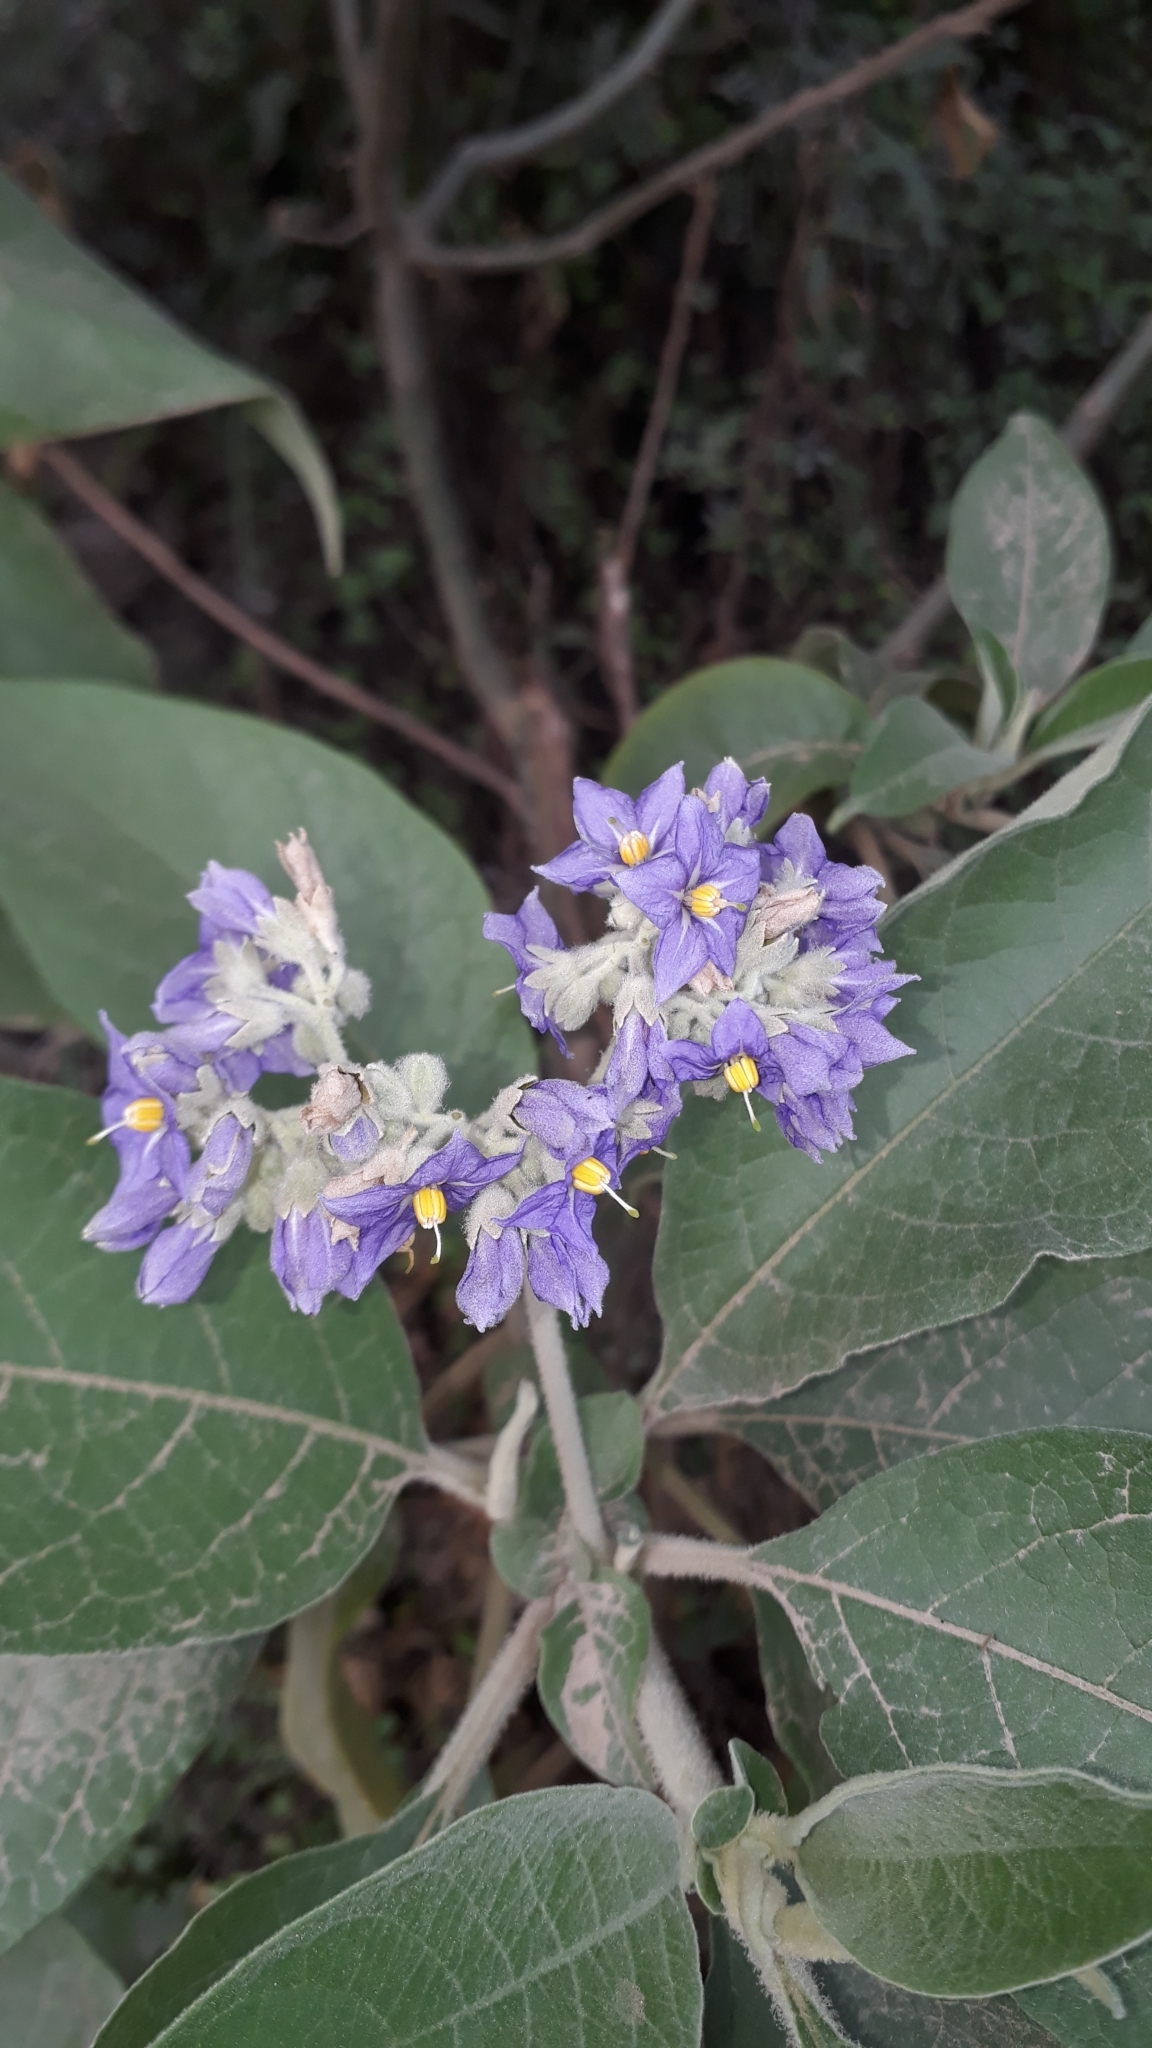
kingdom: Plantae
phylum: Tracheophyta
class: Magnoliopsida
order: Solanales
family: Solanaceae
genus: Solanum
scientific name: Solanum mauritianum
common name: Earleaf nightshade
